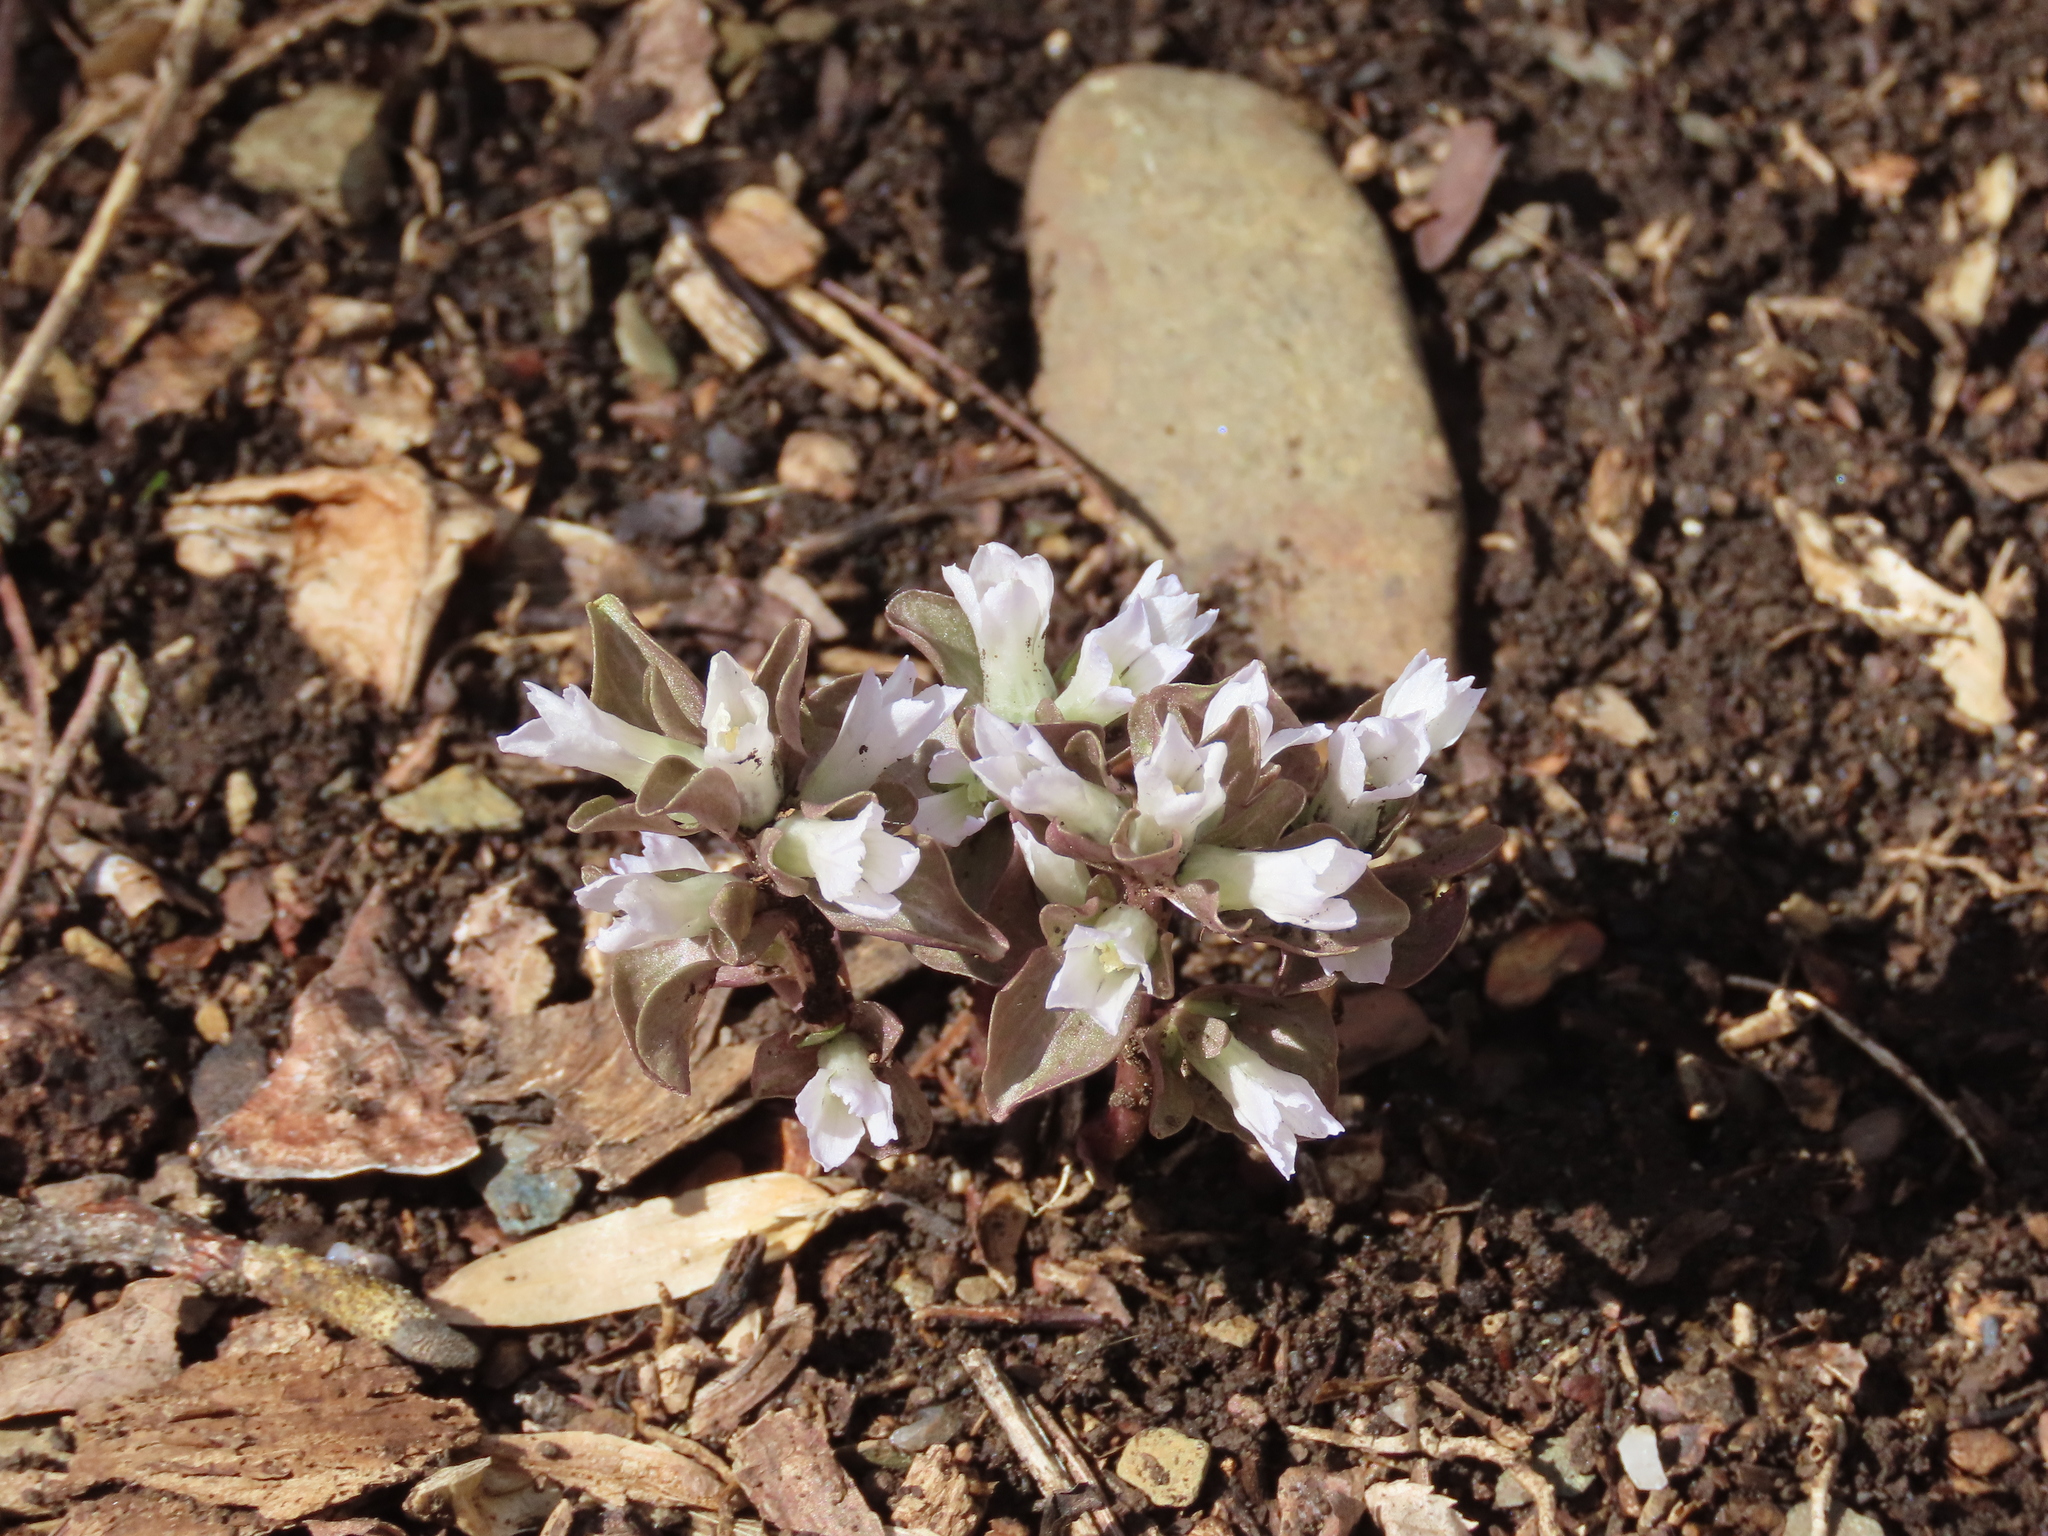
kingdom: Plantae
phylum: Tracheophyta
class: Magnoliopsida
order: Gentianales
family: Gentianaceae
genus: Obolaria
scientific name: Obolaria virginica
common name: Pennywort
